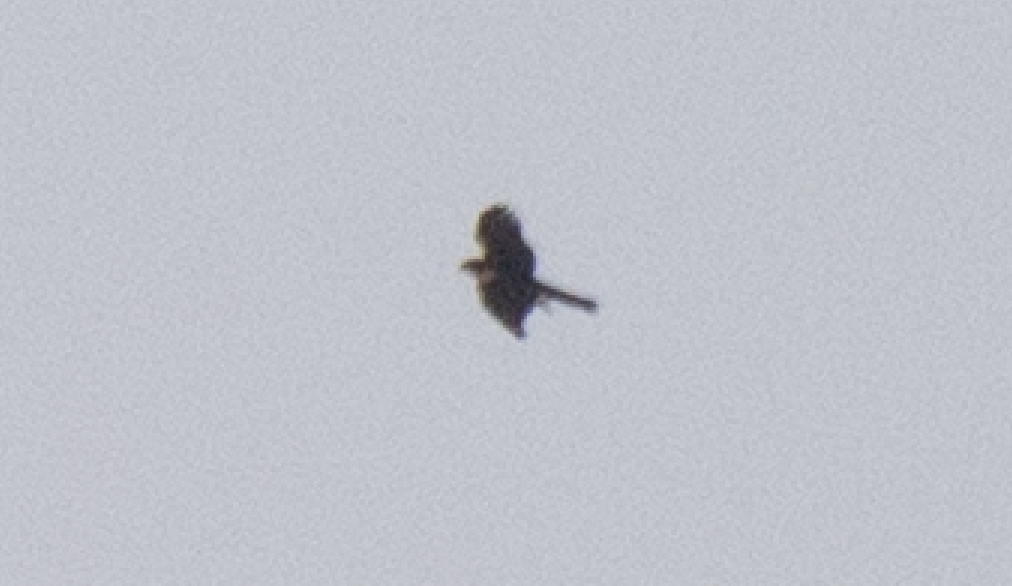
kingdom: Animalia
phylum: Chordata
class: Aves
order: Accipitriformes
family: Accipitridae
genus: Accipiter
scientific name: Accipiter nisus
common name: Eurasian sparrowhawk
